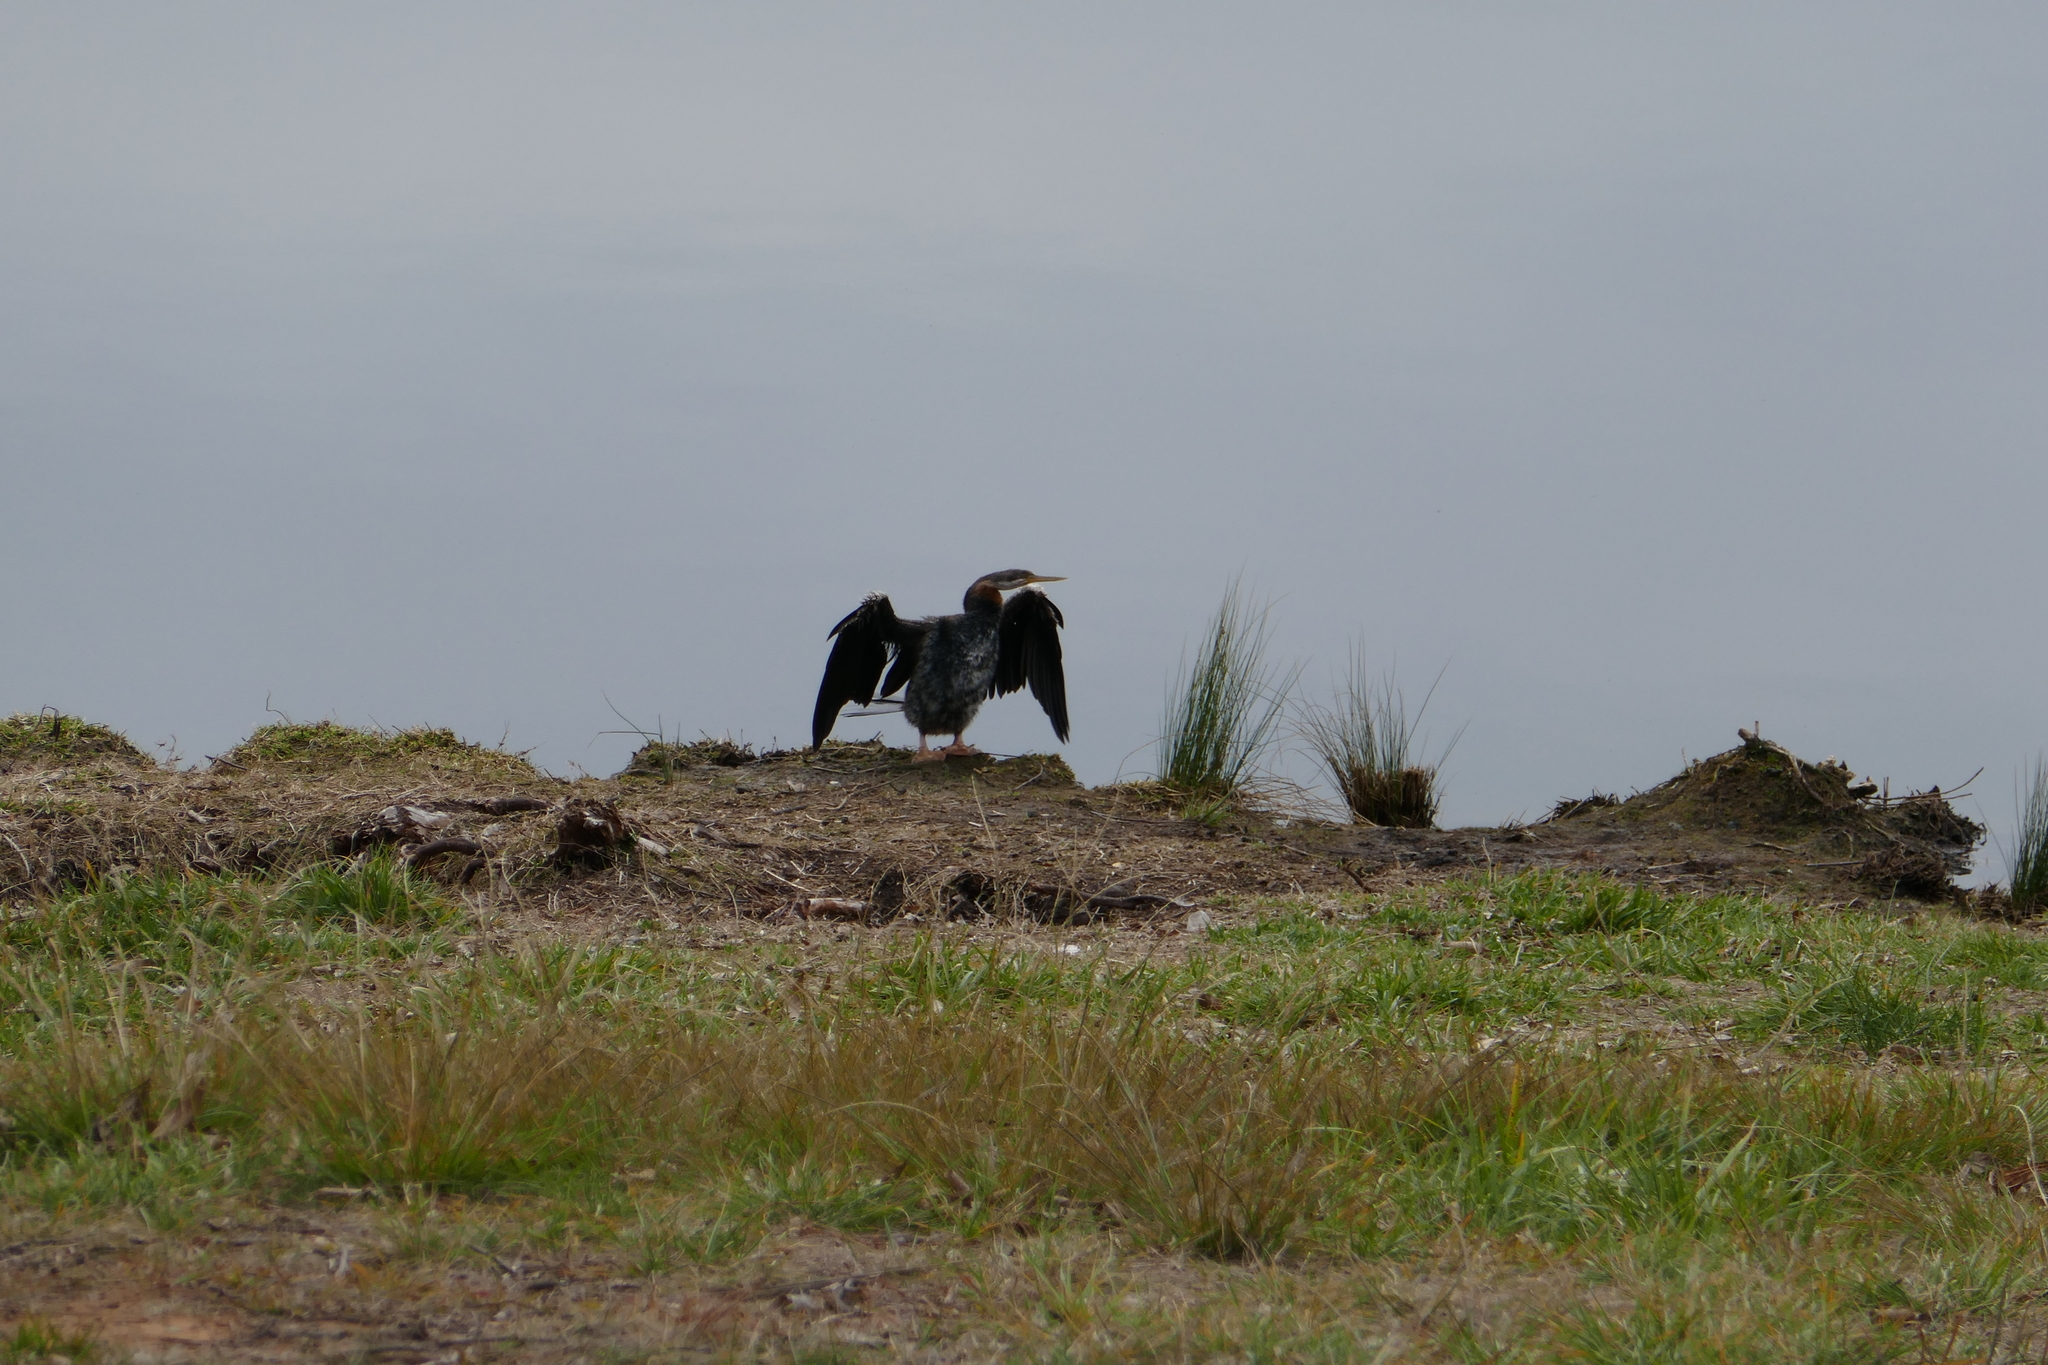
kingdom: Animalia
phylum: Chordata
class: Aves
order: Suliformes
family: Anhingidae
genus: Anhinga
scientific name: Anhinga novaehollandiae
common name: Australasian darter
